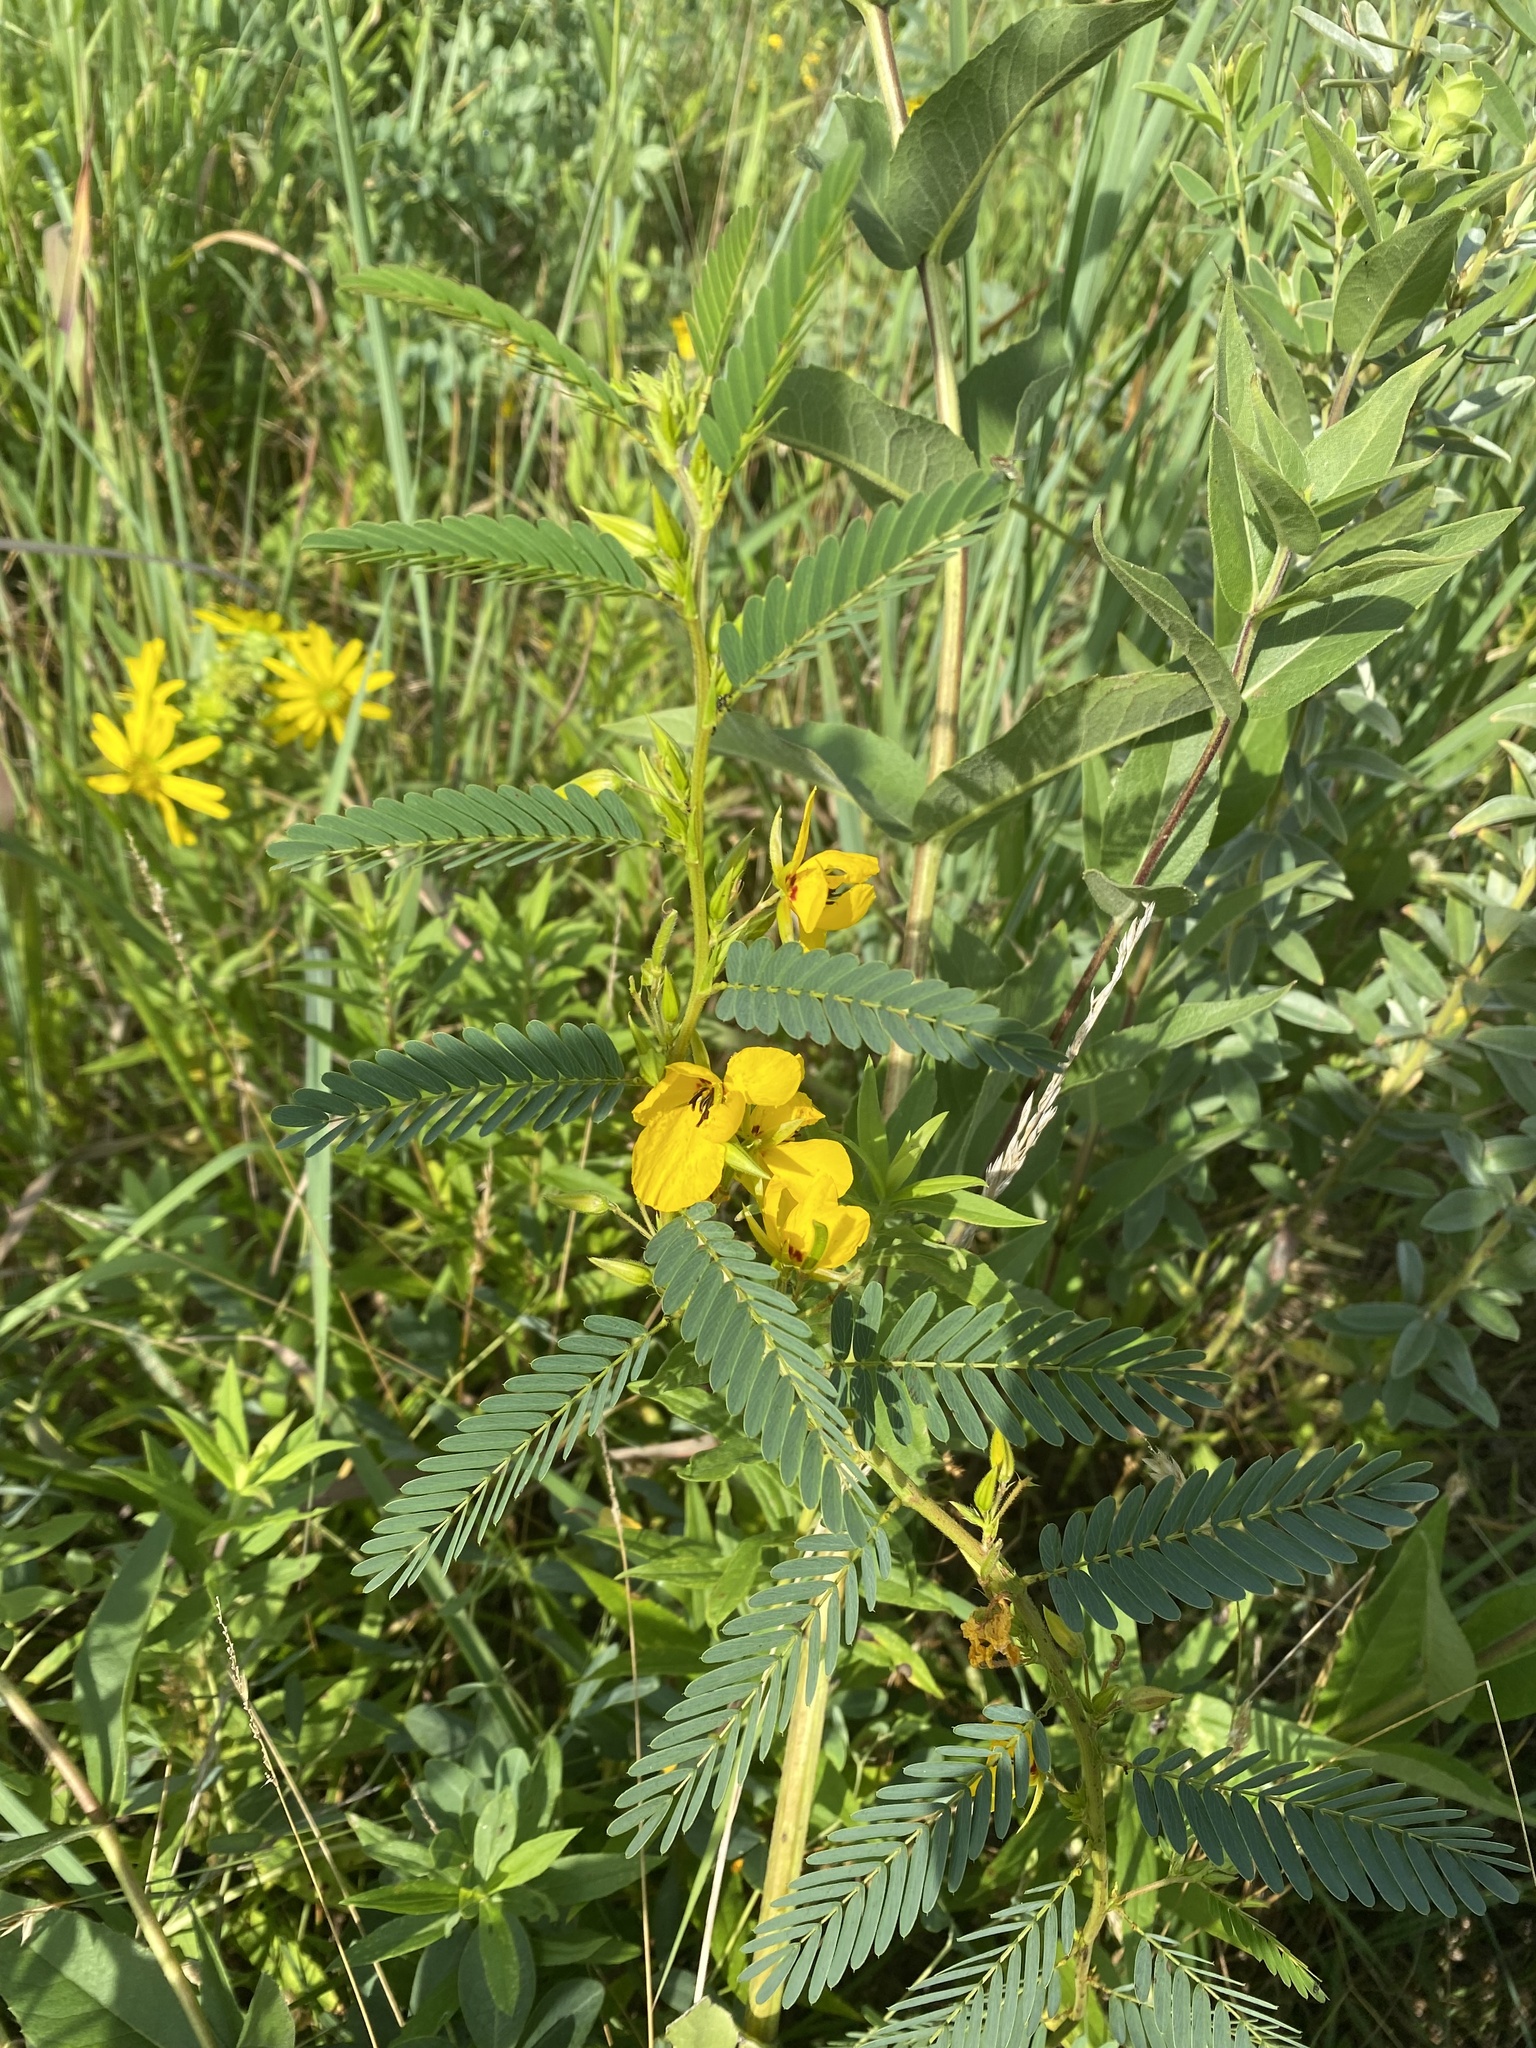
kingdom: Plantae
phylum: Tracheophyta
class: Magnoliopsida
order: Fabales
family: Fabaceae
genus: Chamaecrista
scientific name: Chamaecrista fasciculata
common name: Golden cassia
